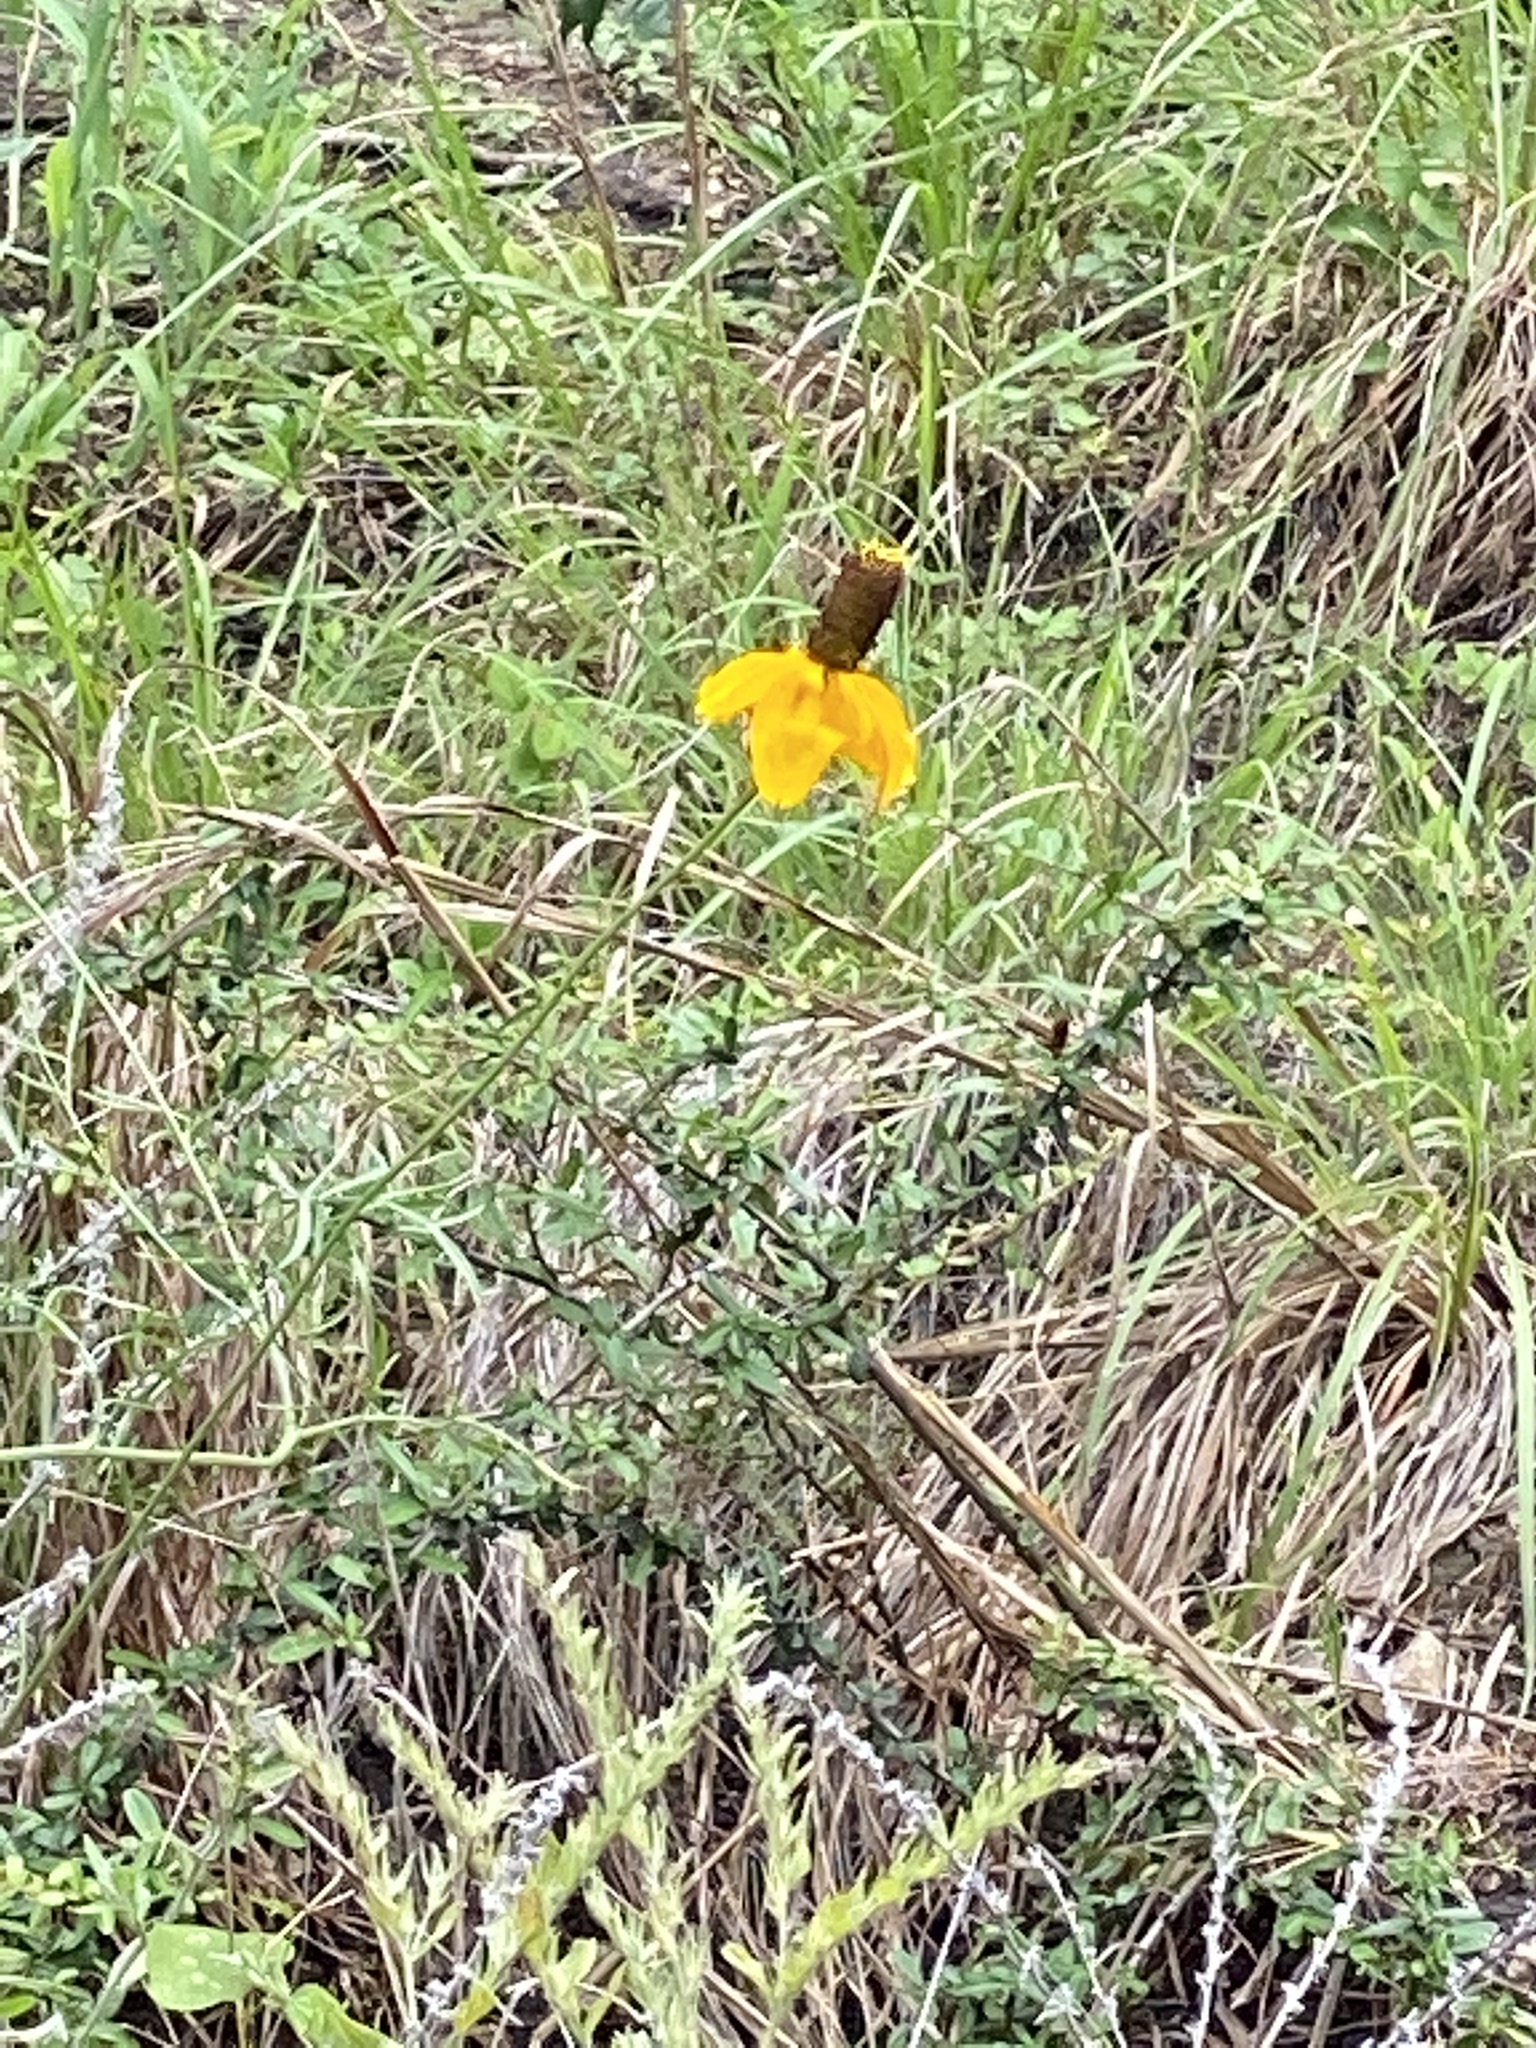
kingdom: Plantae
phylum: Tracheophyta
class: Magnoliopsida
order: Asterales
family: Asteraceae
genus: Ratibida
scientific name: Ratibida columnifera
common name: Prairie coneflower
